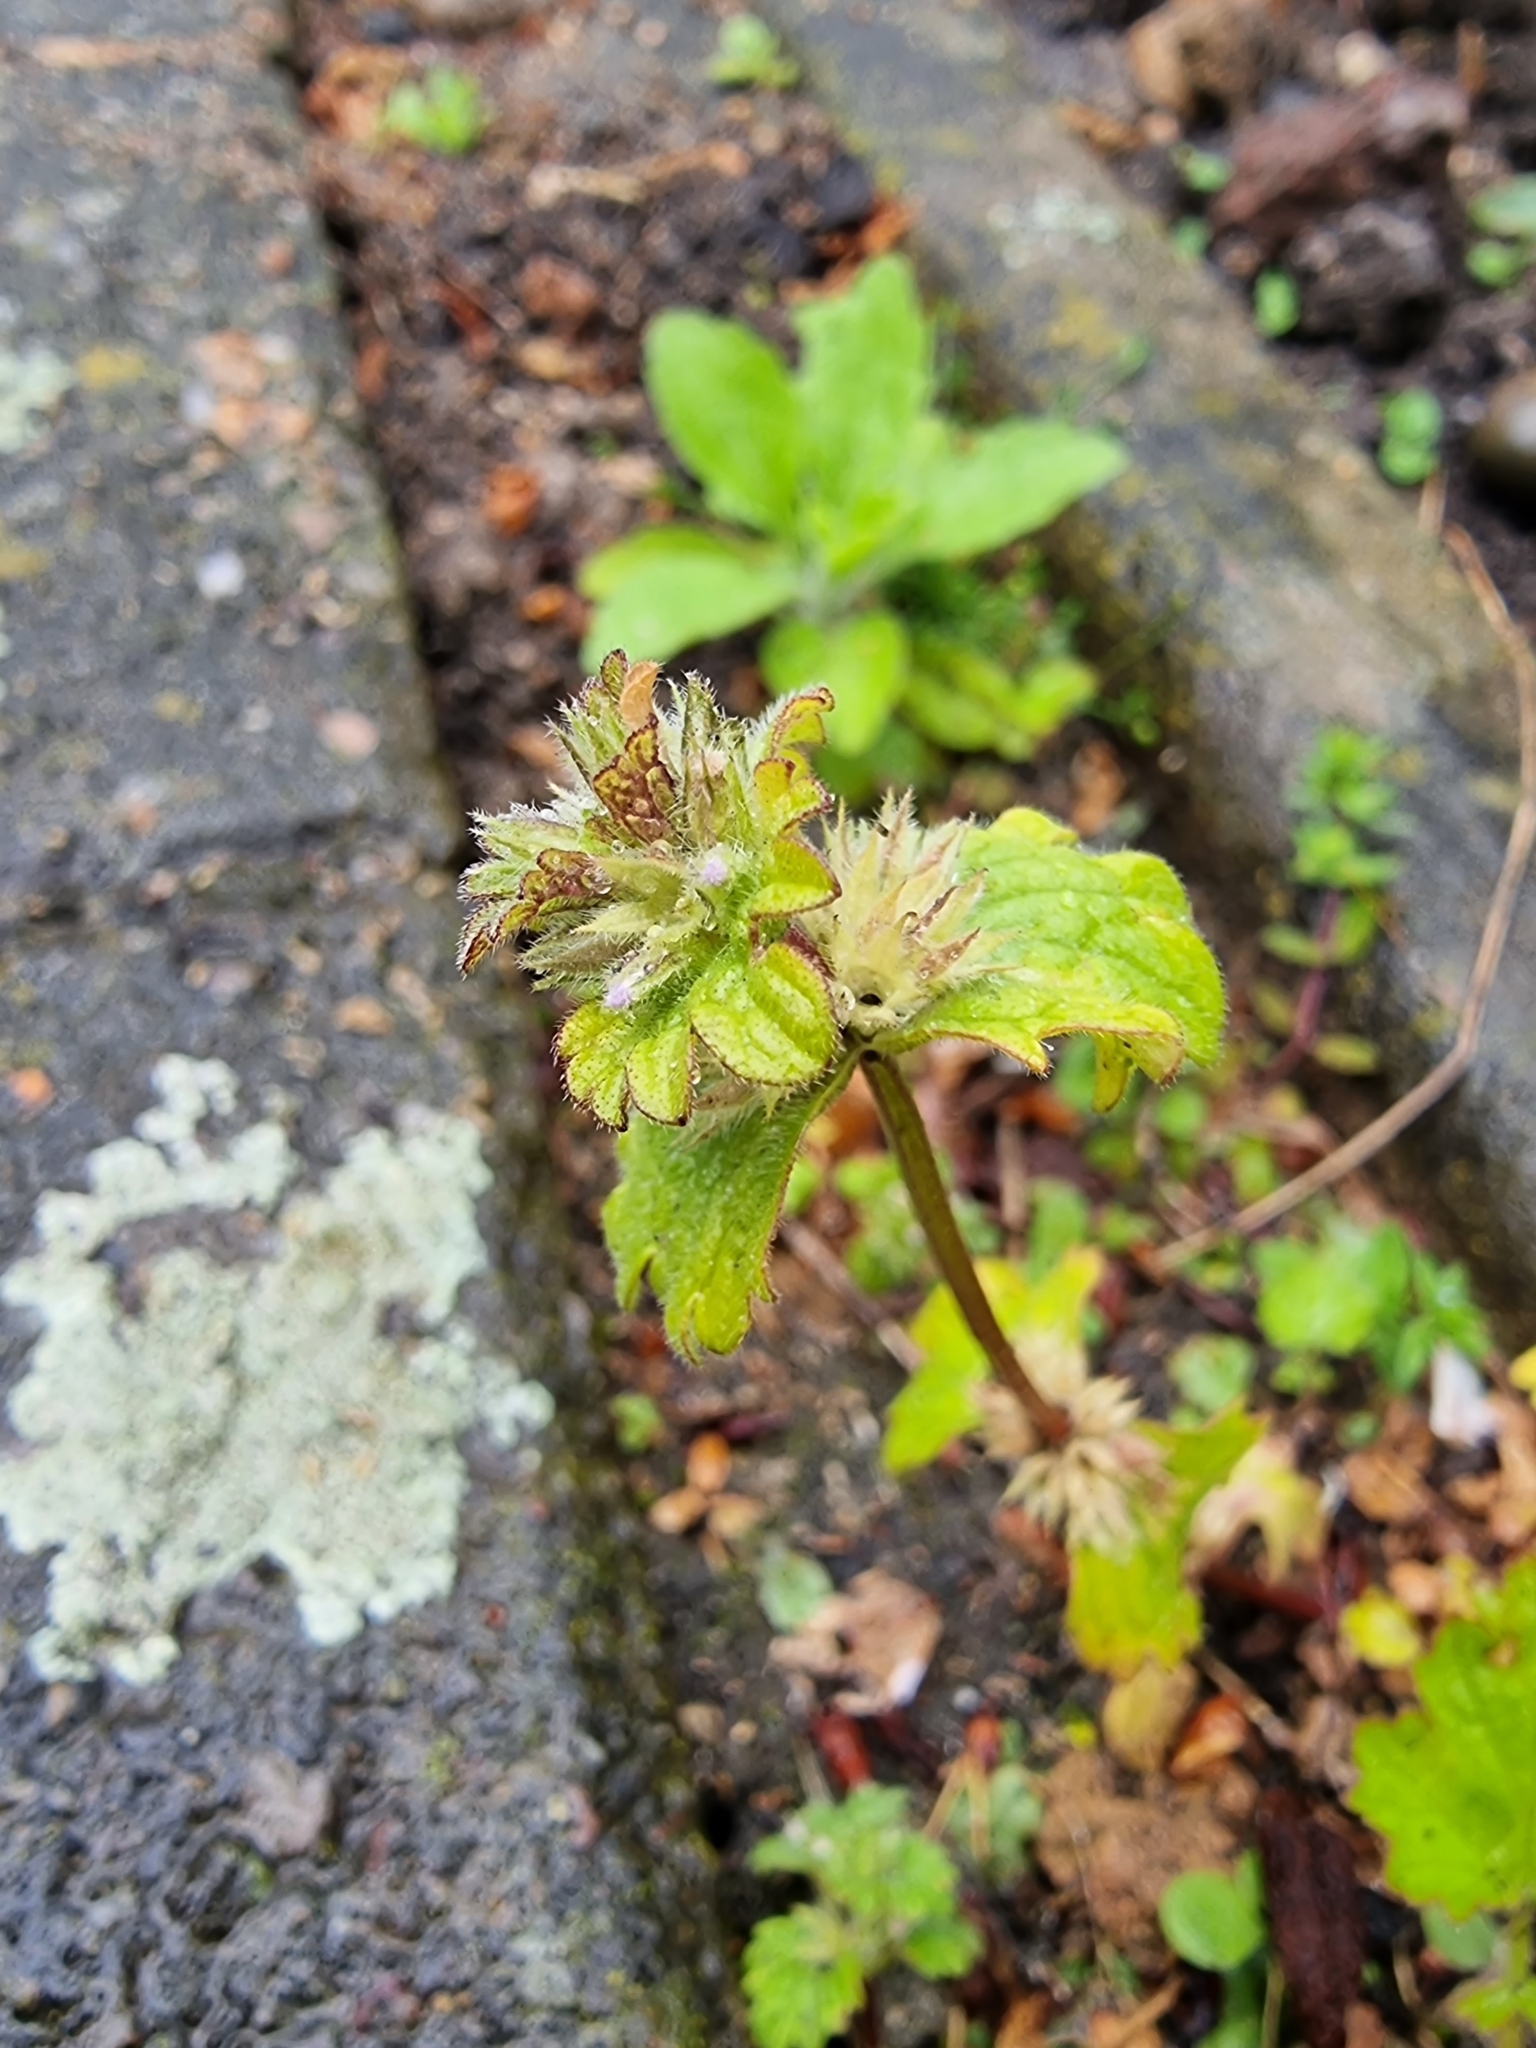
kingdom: Plantae
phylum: Tracheophyta
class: Magnoliopsida
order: Lamiales
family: Lamiaceae
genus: Lamium
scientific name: Lamium amplexicaule
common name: Henbit dead-nettle
